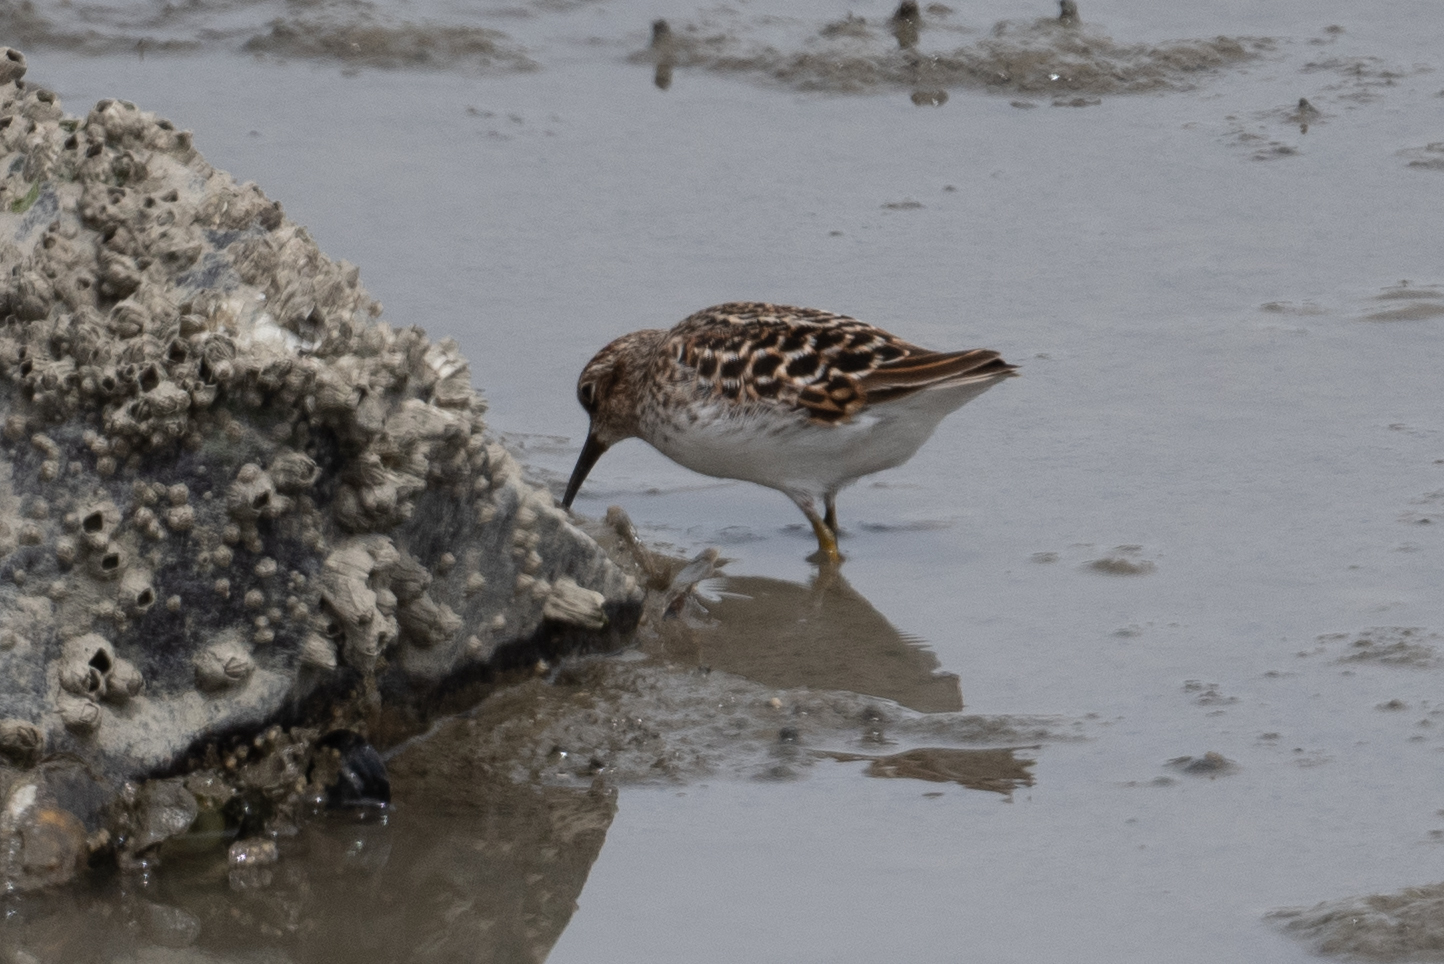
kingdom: Animalia
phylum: Chordata
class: Aves
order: Charadriiformes
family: Scolopacidae
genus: Calidris
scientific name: Calidris minutilla
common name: Least sandpiper
